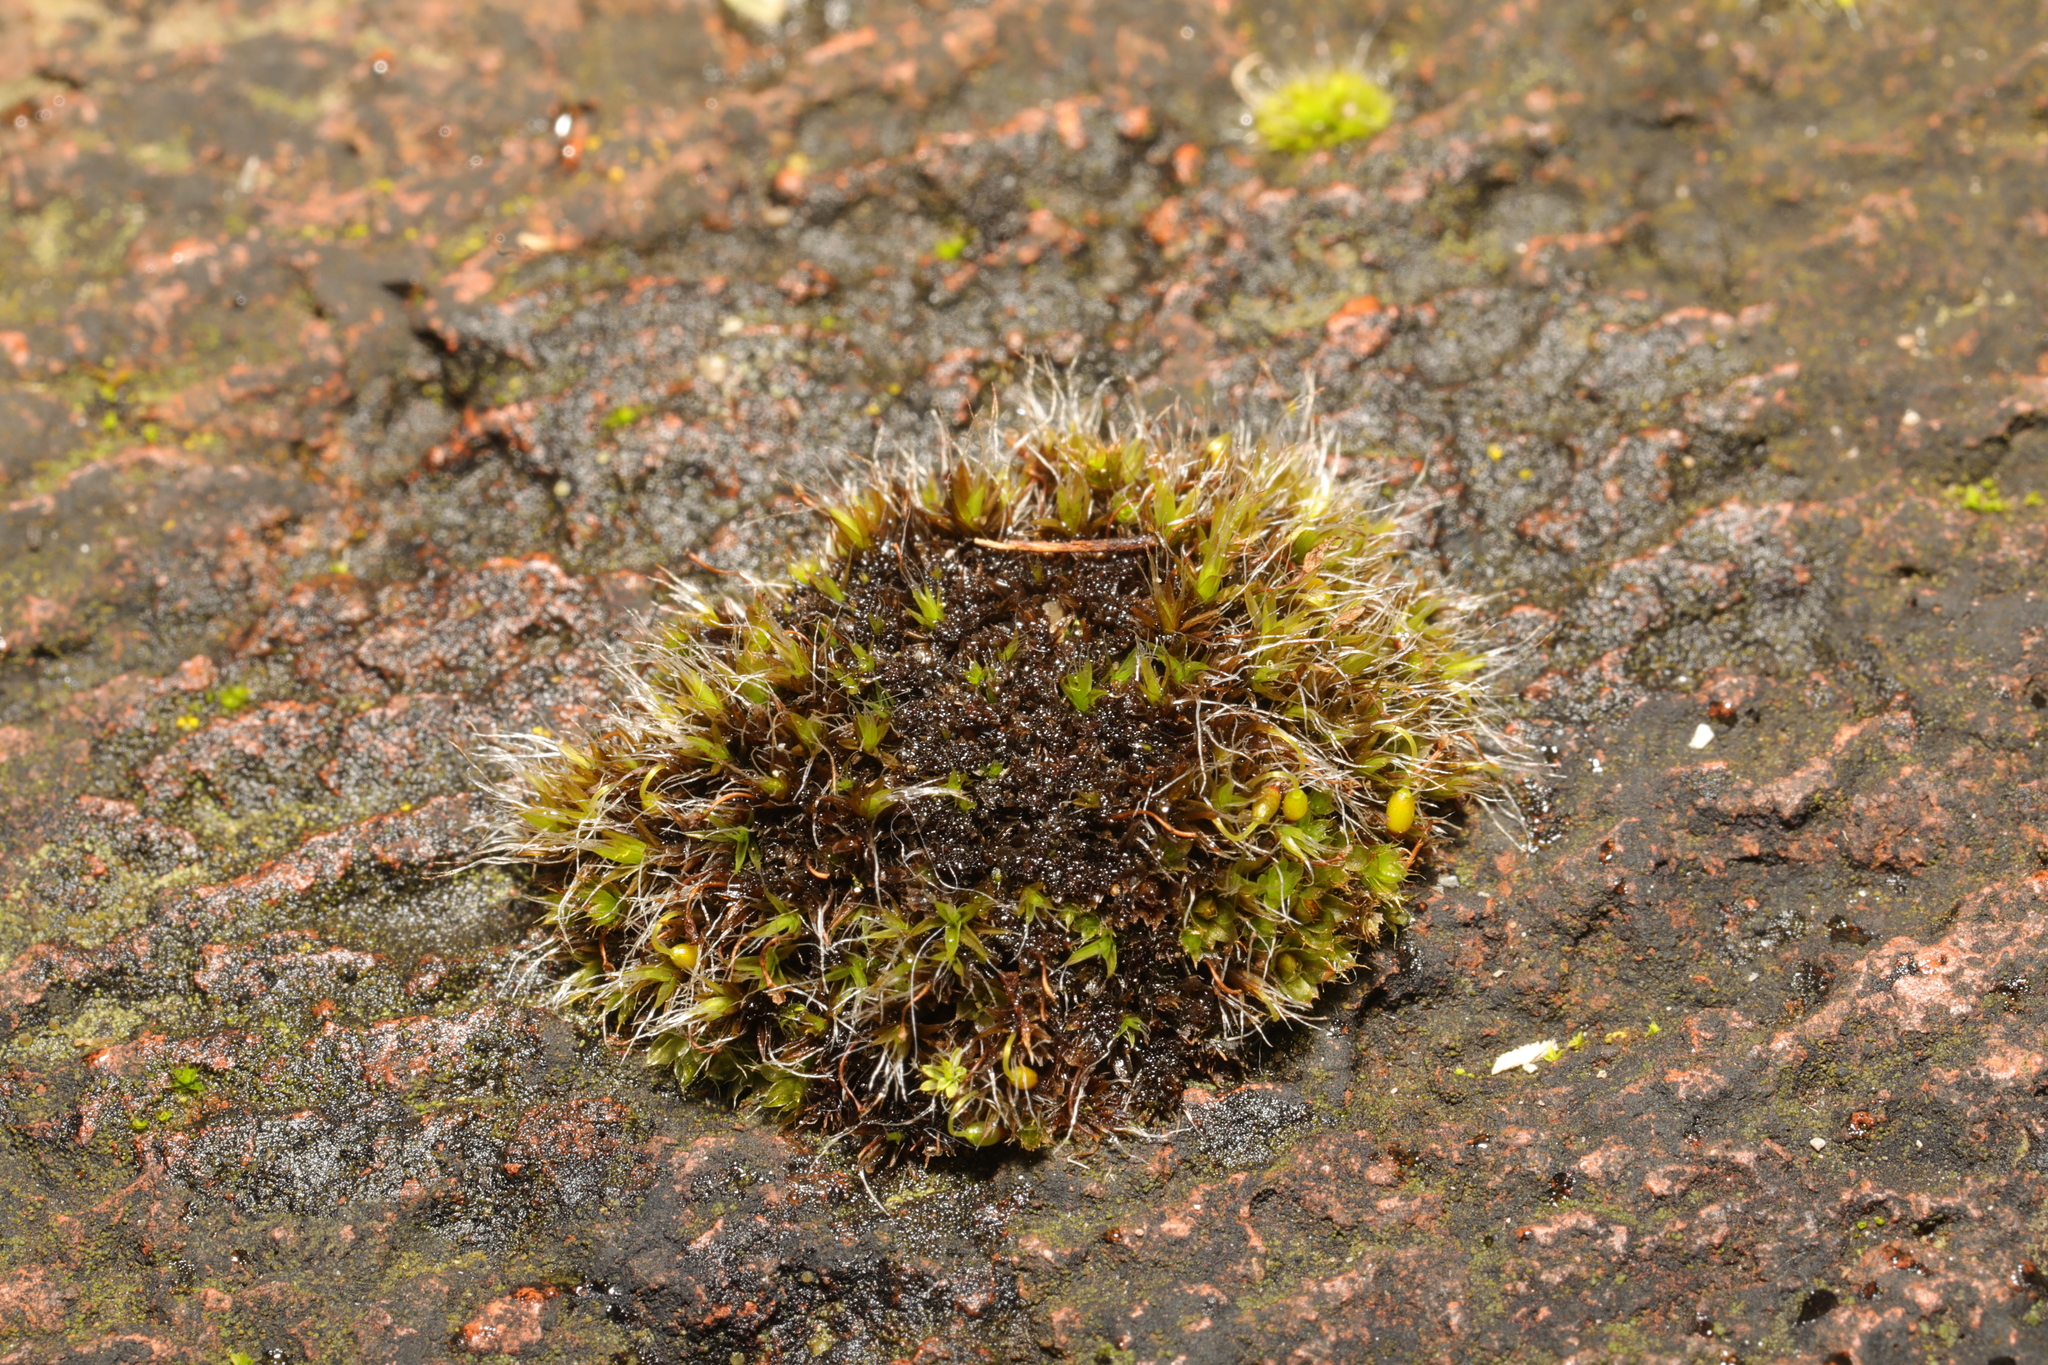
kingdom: Plantae
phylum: Bryophyta
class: Bryopsida
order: Grimmiales
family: Grimmiaceae
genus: Grimmia
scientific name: Grimmia pulvinata
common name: Grey-cushioned grimmia
